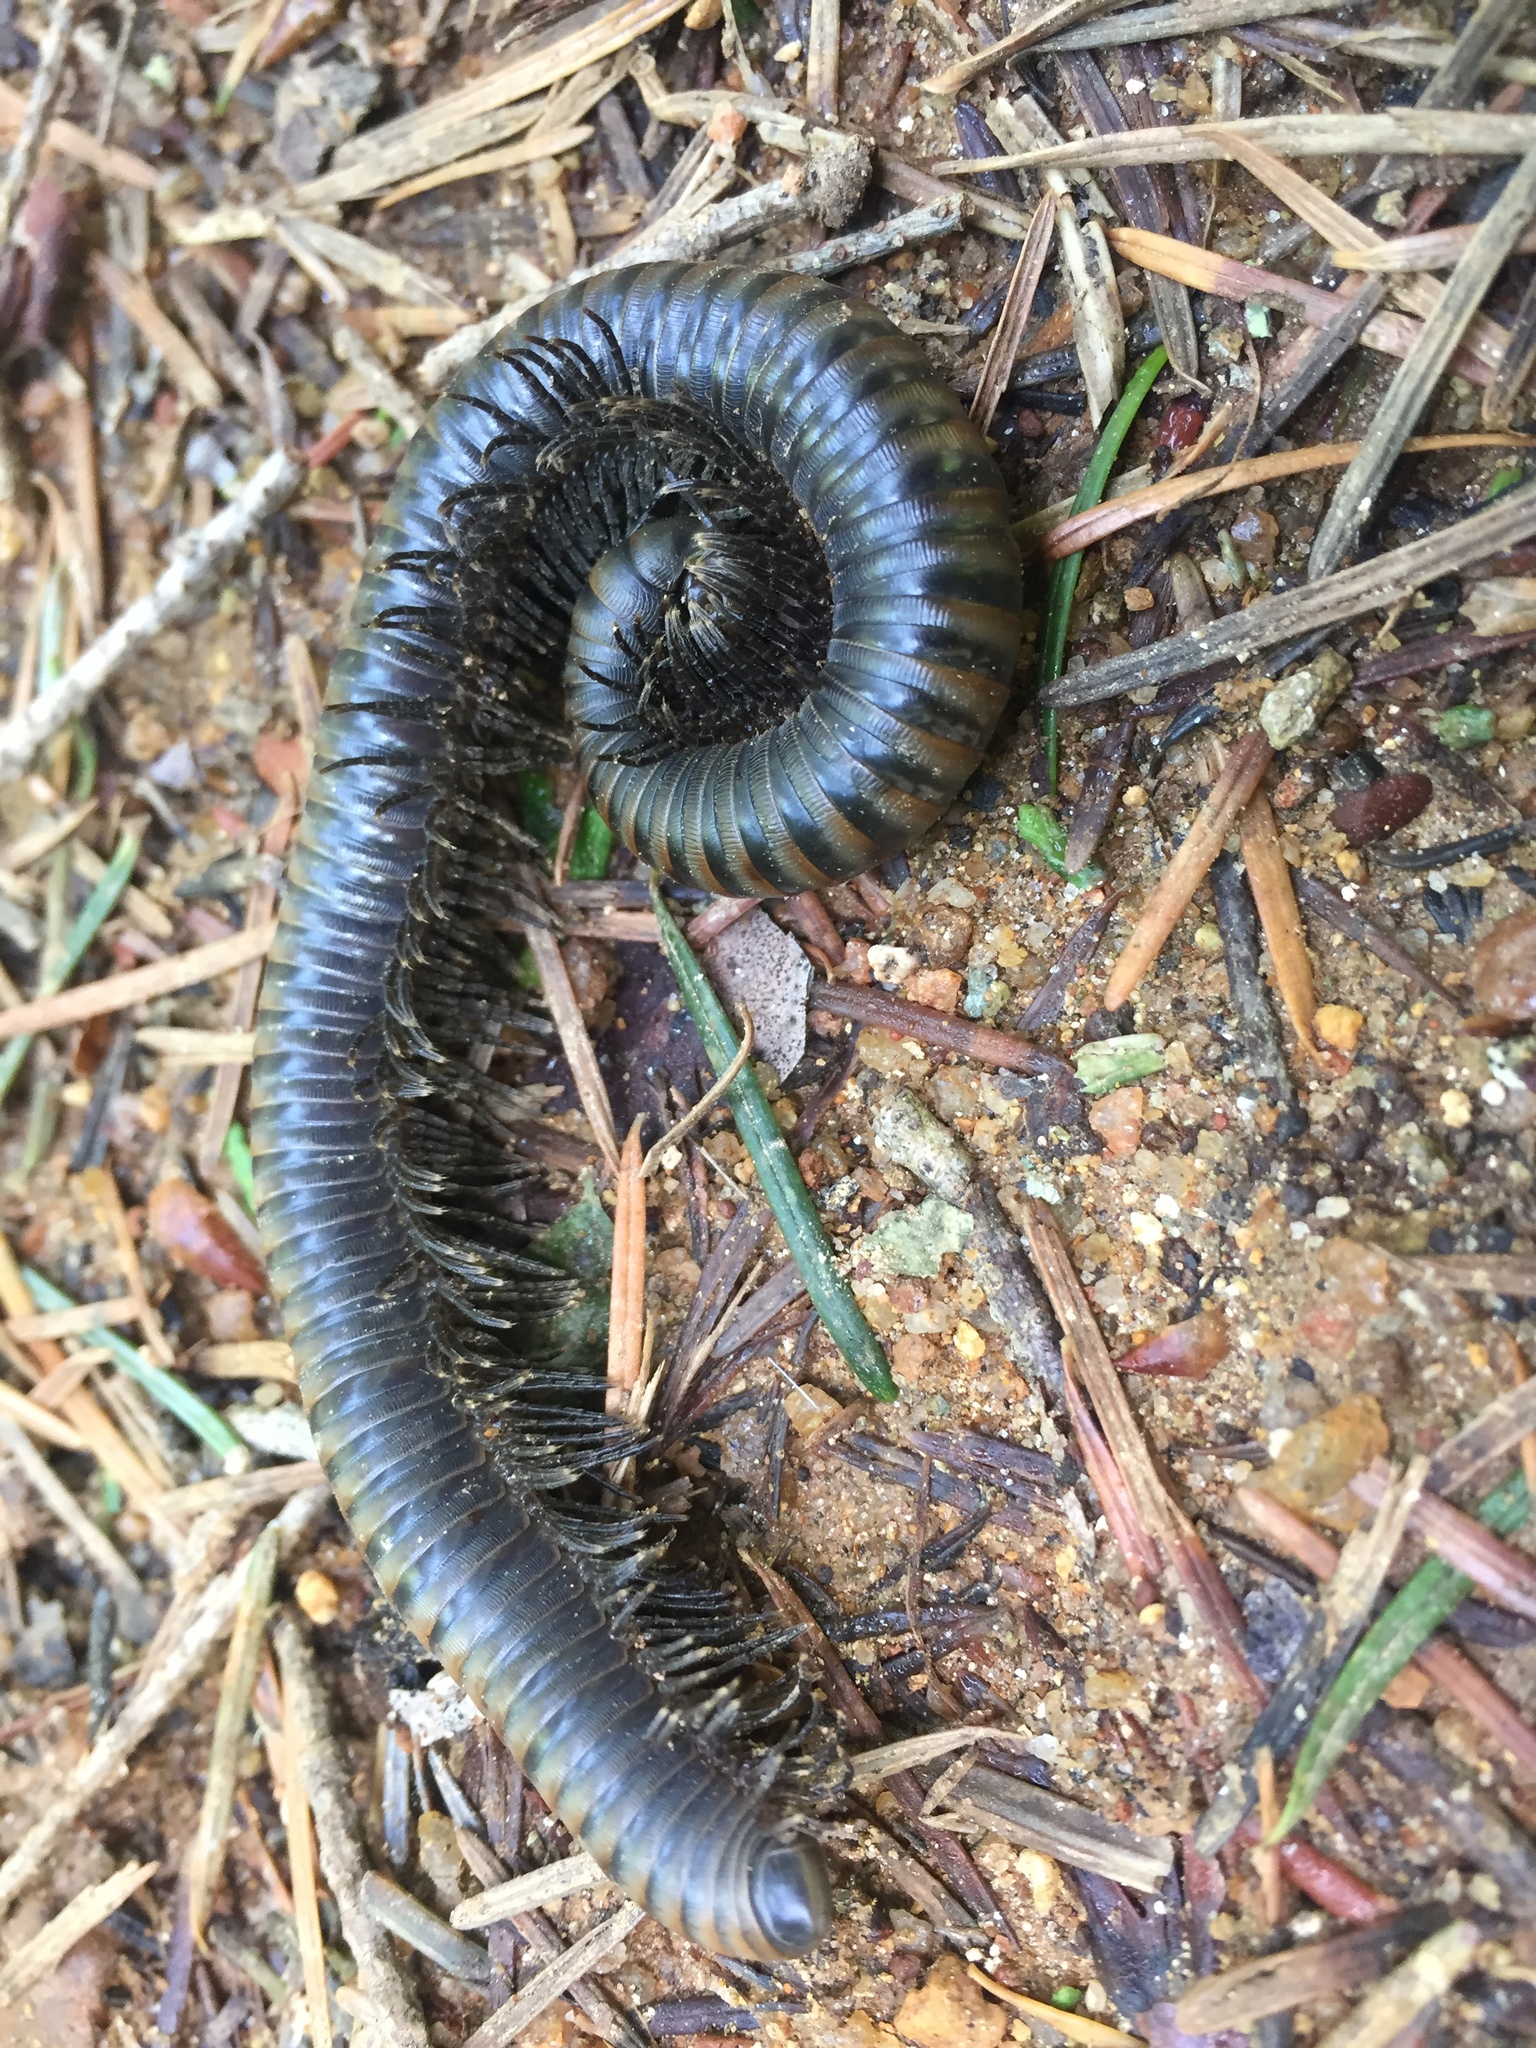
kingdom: Animalia
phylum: Arthropoda
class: Diplopoda
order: Julida
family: Paeromopodidae
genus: Paeromopus
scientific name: Paeromopus angusticeps
